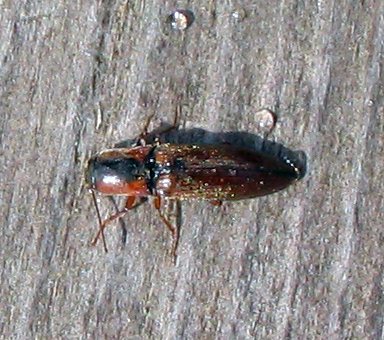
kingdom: Animalia
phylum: Arthropoda
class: Insecta
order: Coleoptera
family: Elateridae
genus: Agriotes
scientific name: Agriotes collaris
